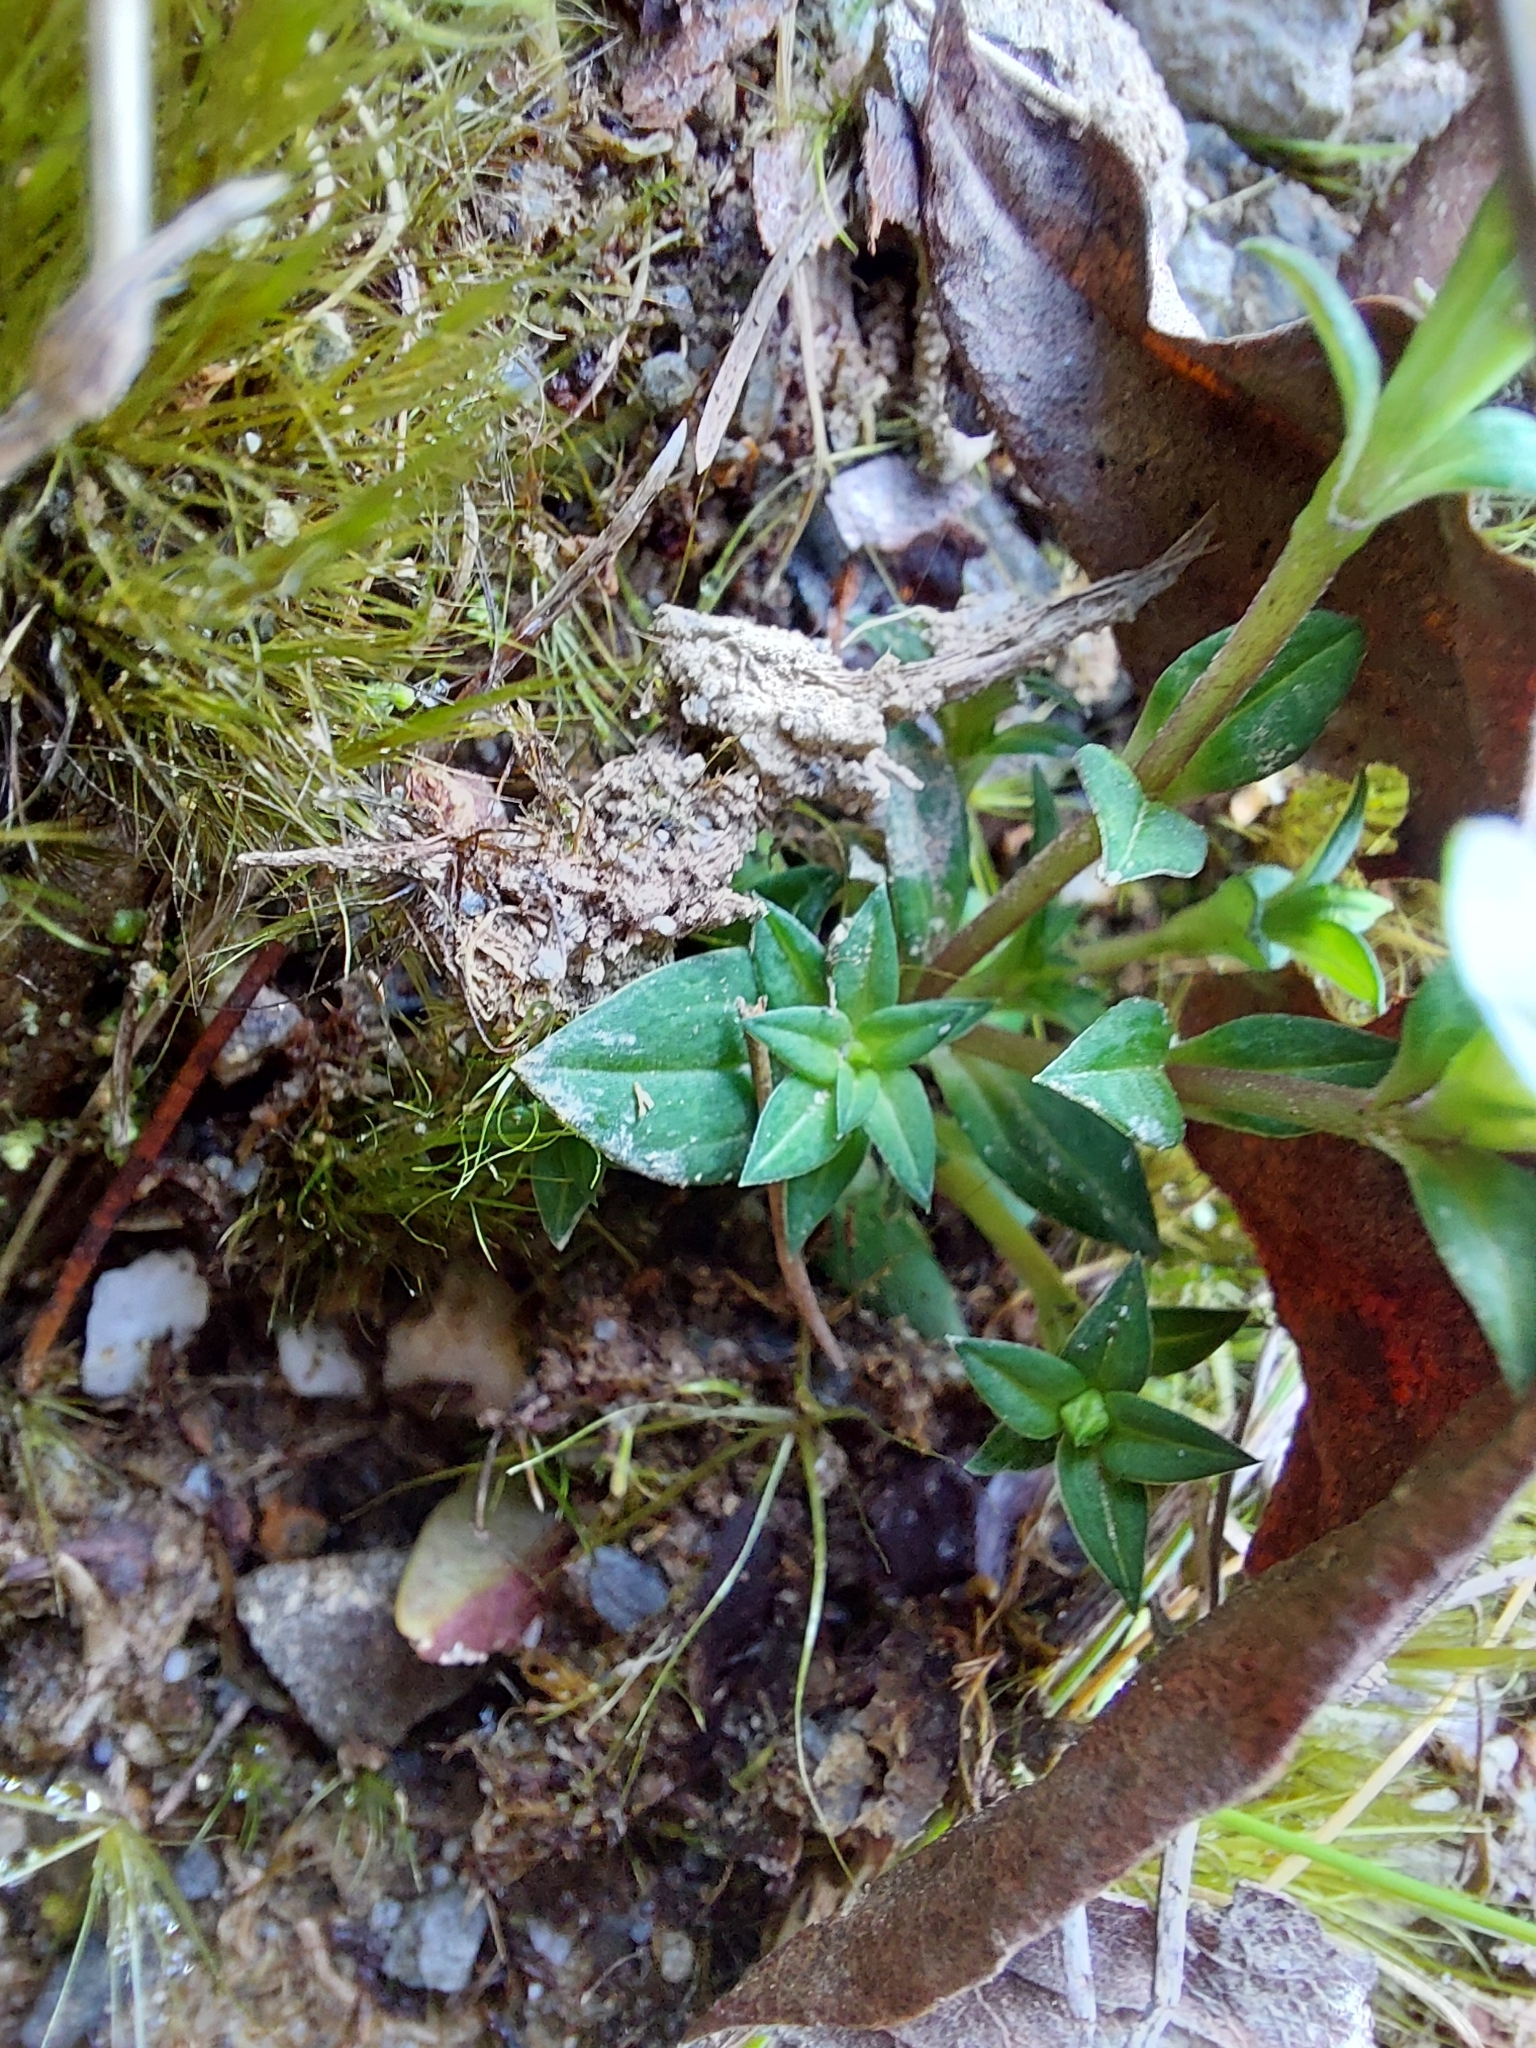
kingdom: Plantae
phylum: Tracheophyta
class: Magnoliopsida
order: Gentianales
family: Gentianaceae
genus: Gentiana
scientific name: Gentiana flavomaculata
